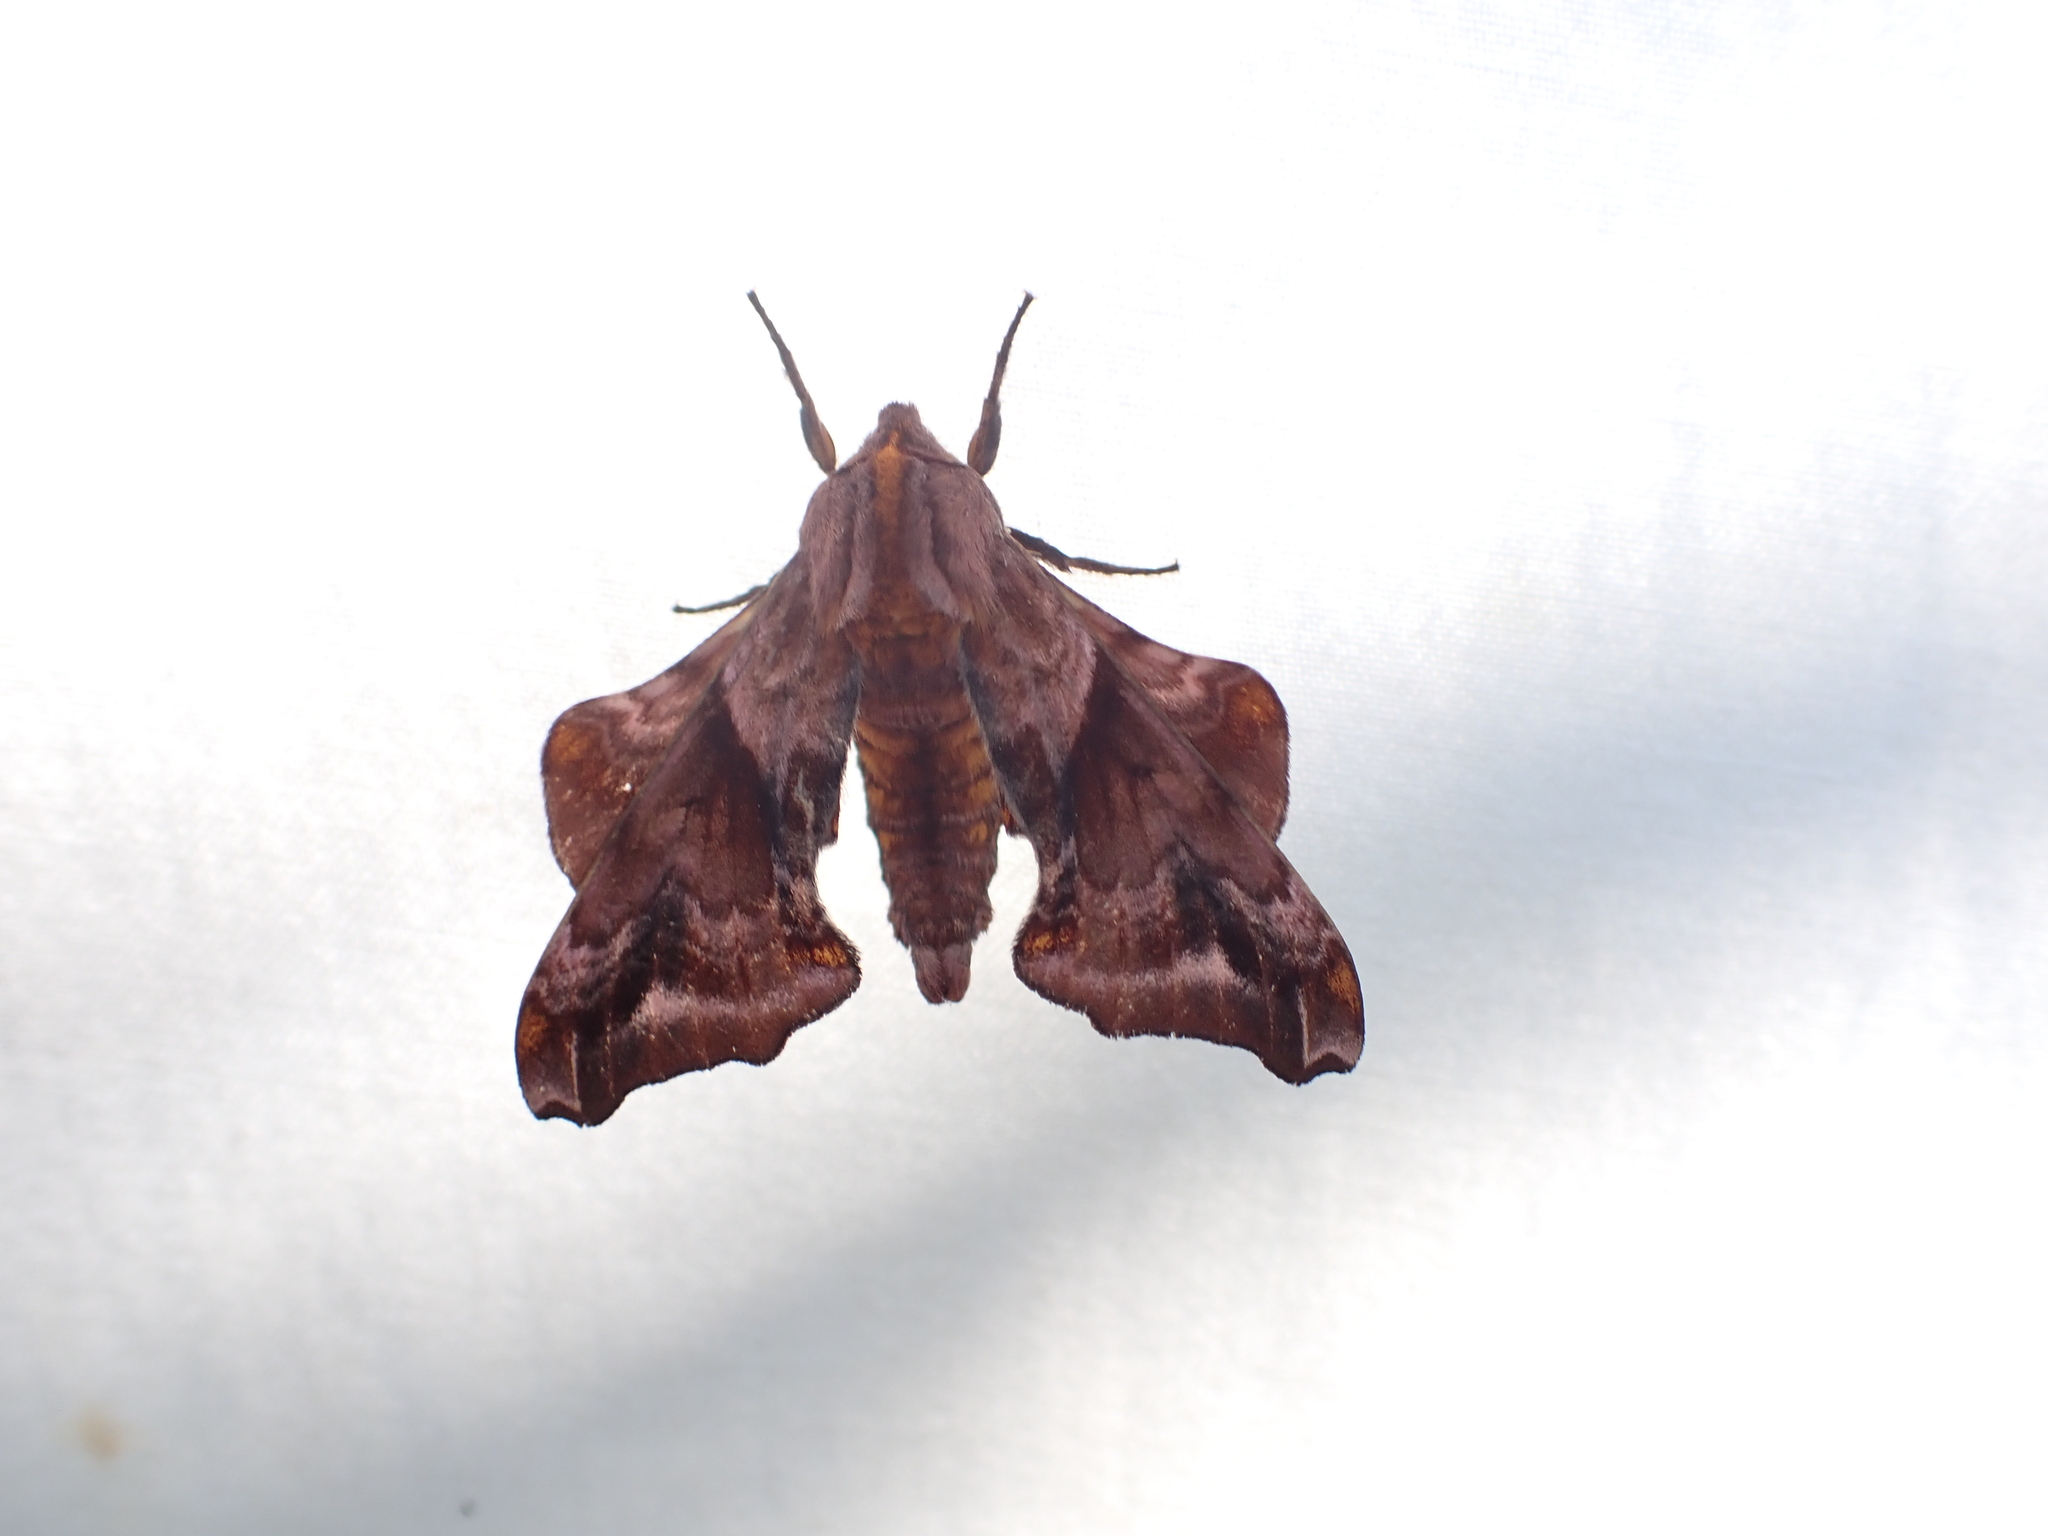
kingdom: Animalia
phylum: Arthropoda
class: Insecta
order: Lepidoptera
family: Sphingidae
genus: Paonias
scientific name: Paonias myops
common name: Small-eyed sphinx
